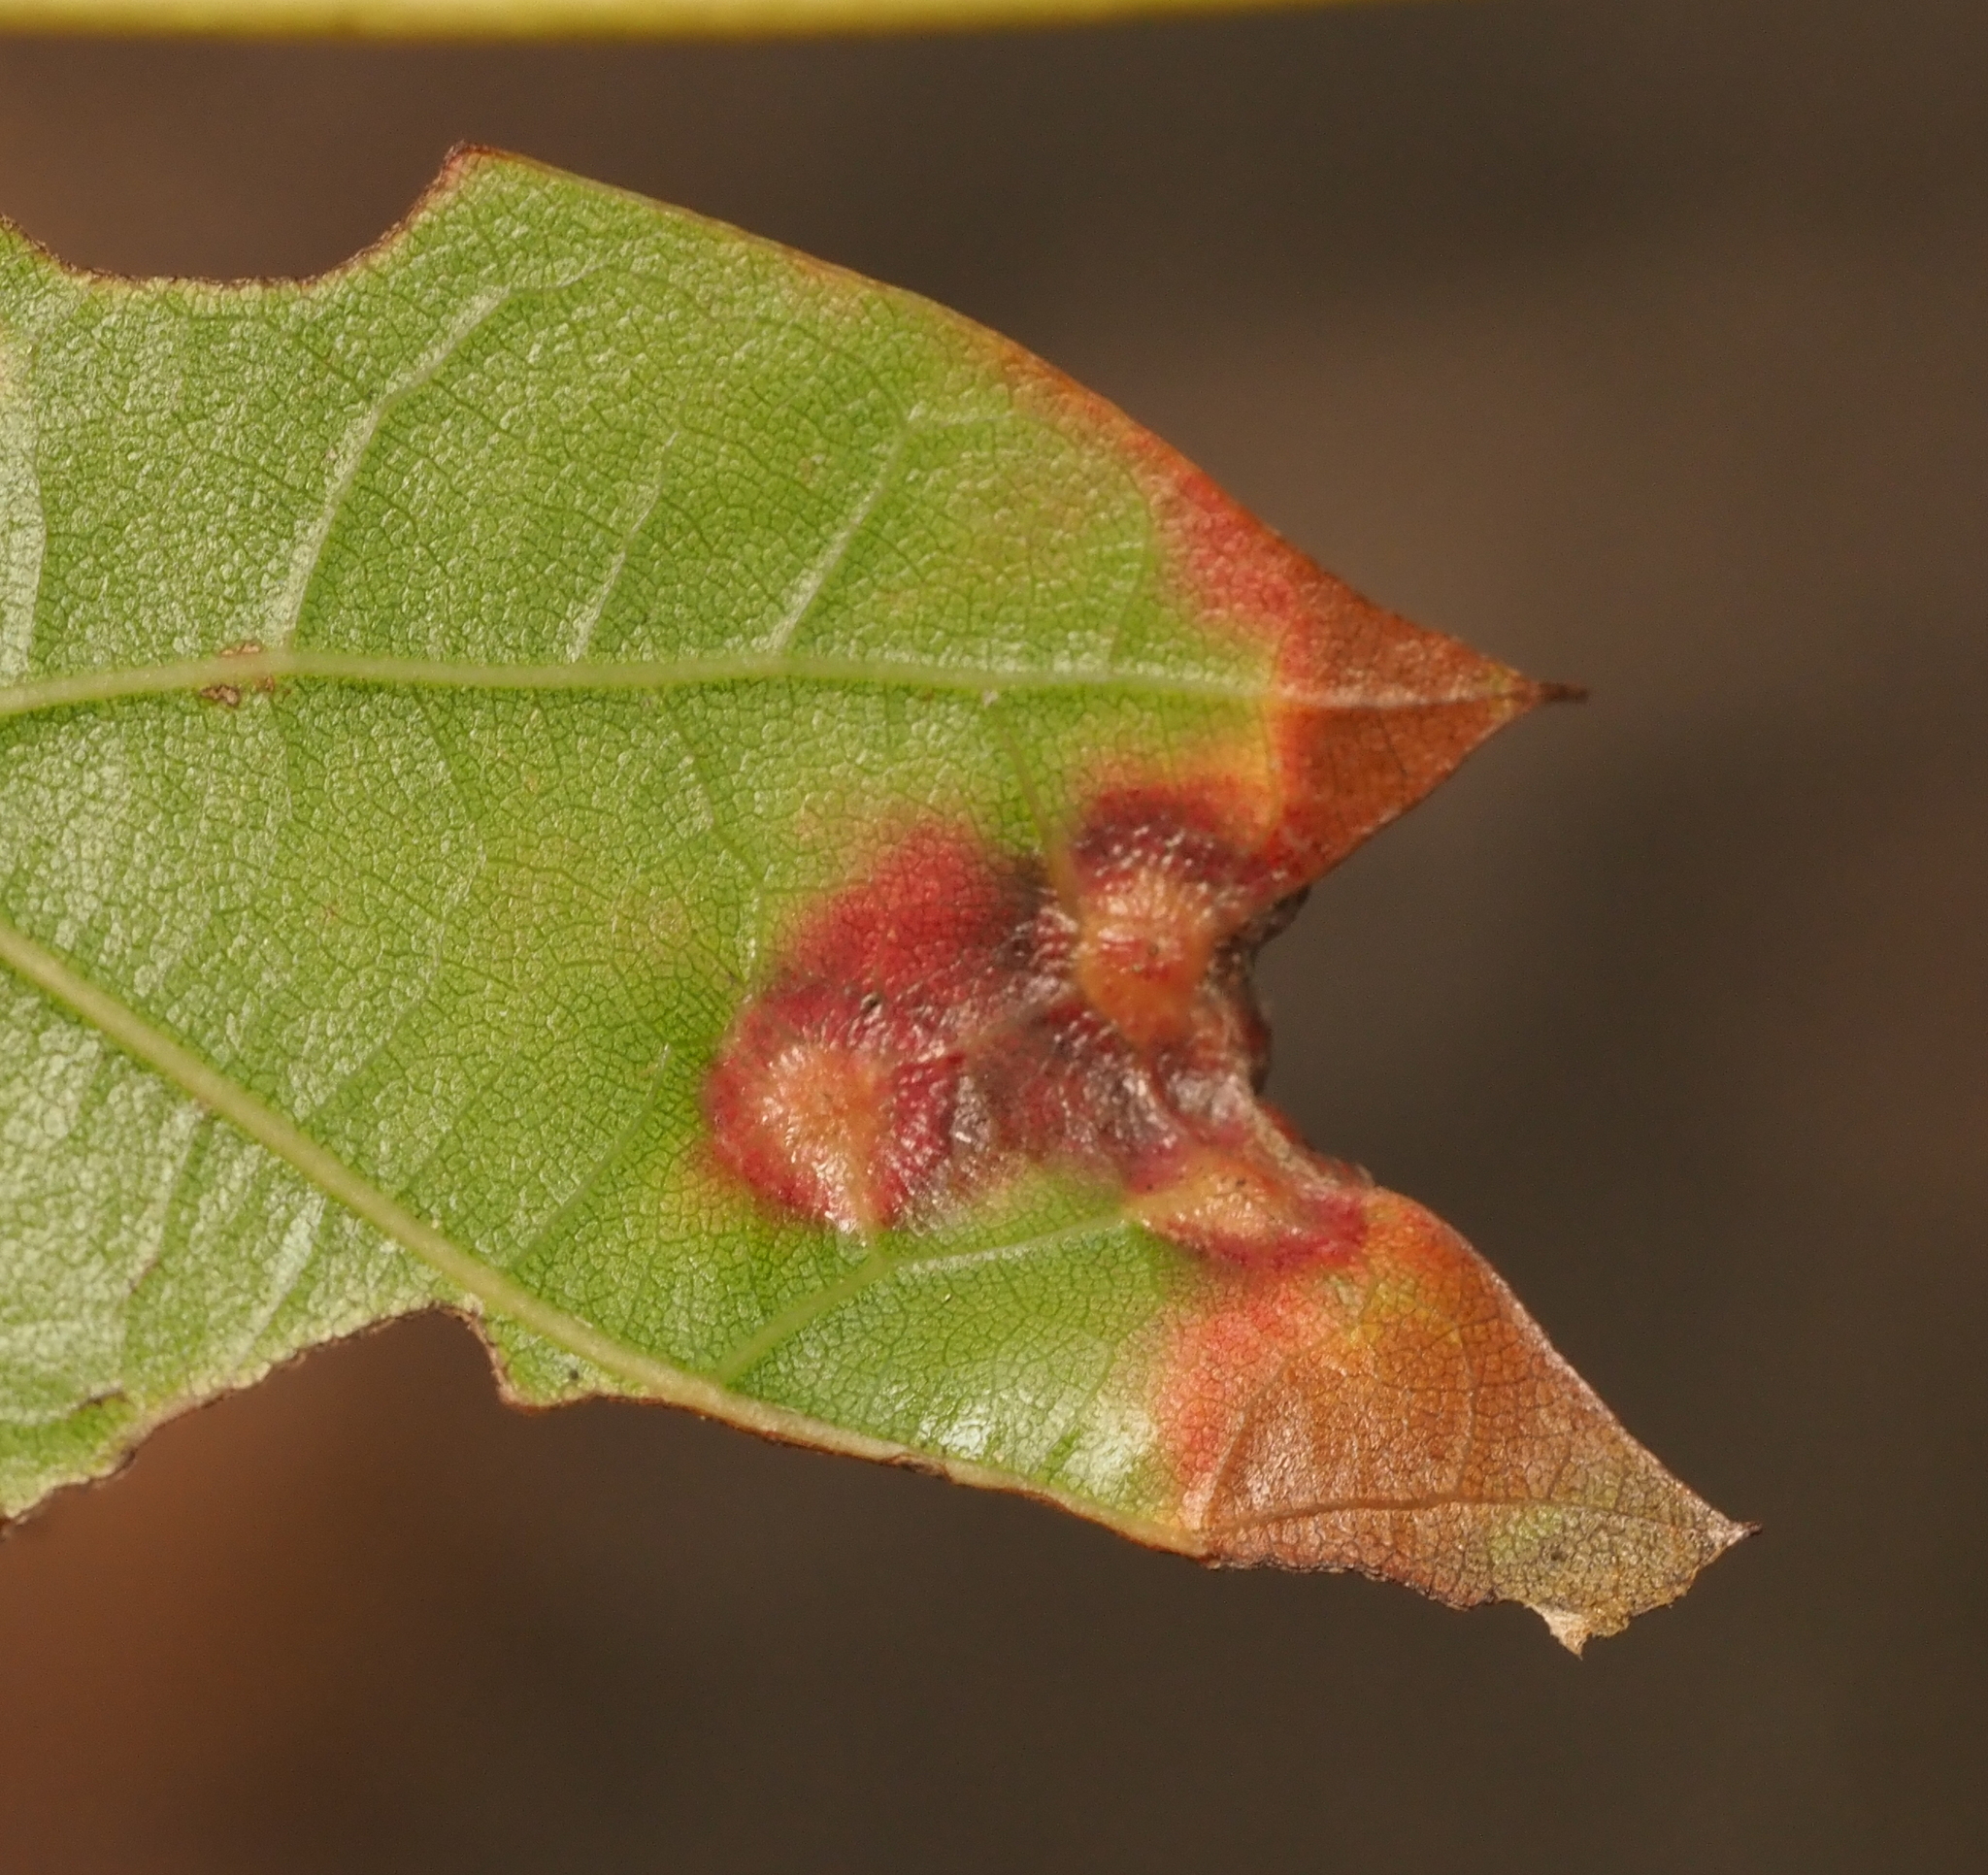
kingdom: Animalia
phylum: Arthropoda
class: Insecta
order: Diptera
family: Cecidomyiidae
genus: Polystepha
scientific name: Polystepha pilulae
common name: Oak leaf gall midge
